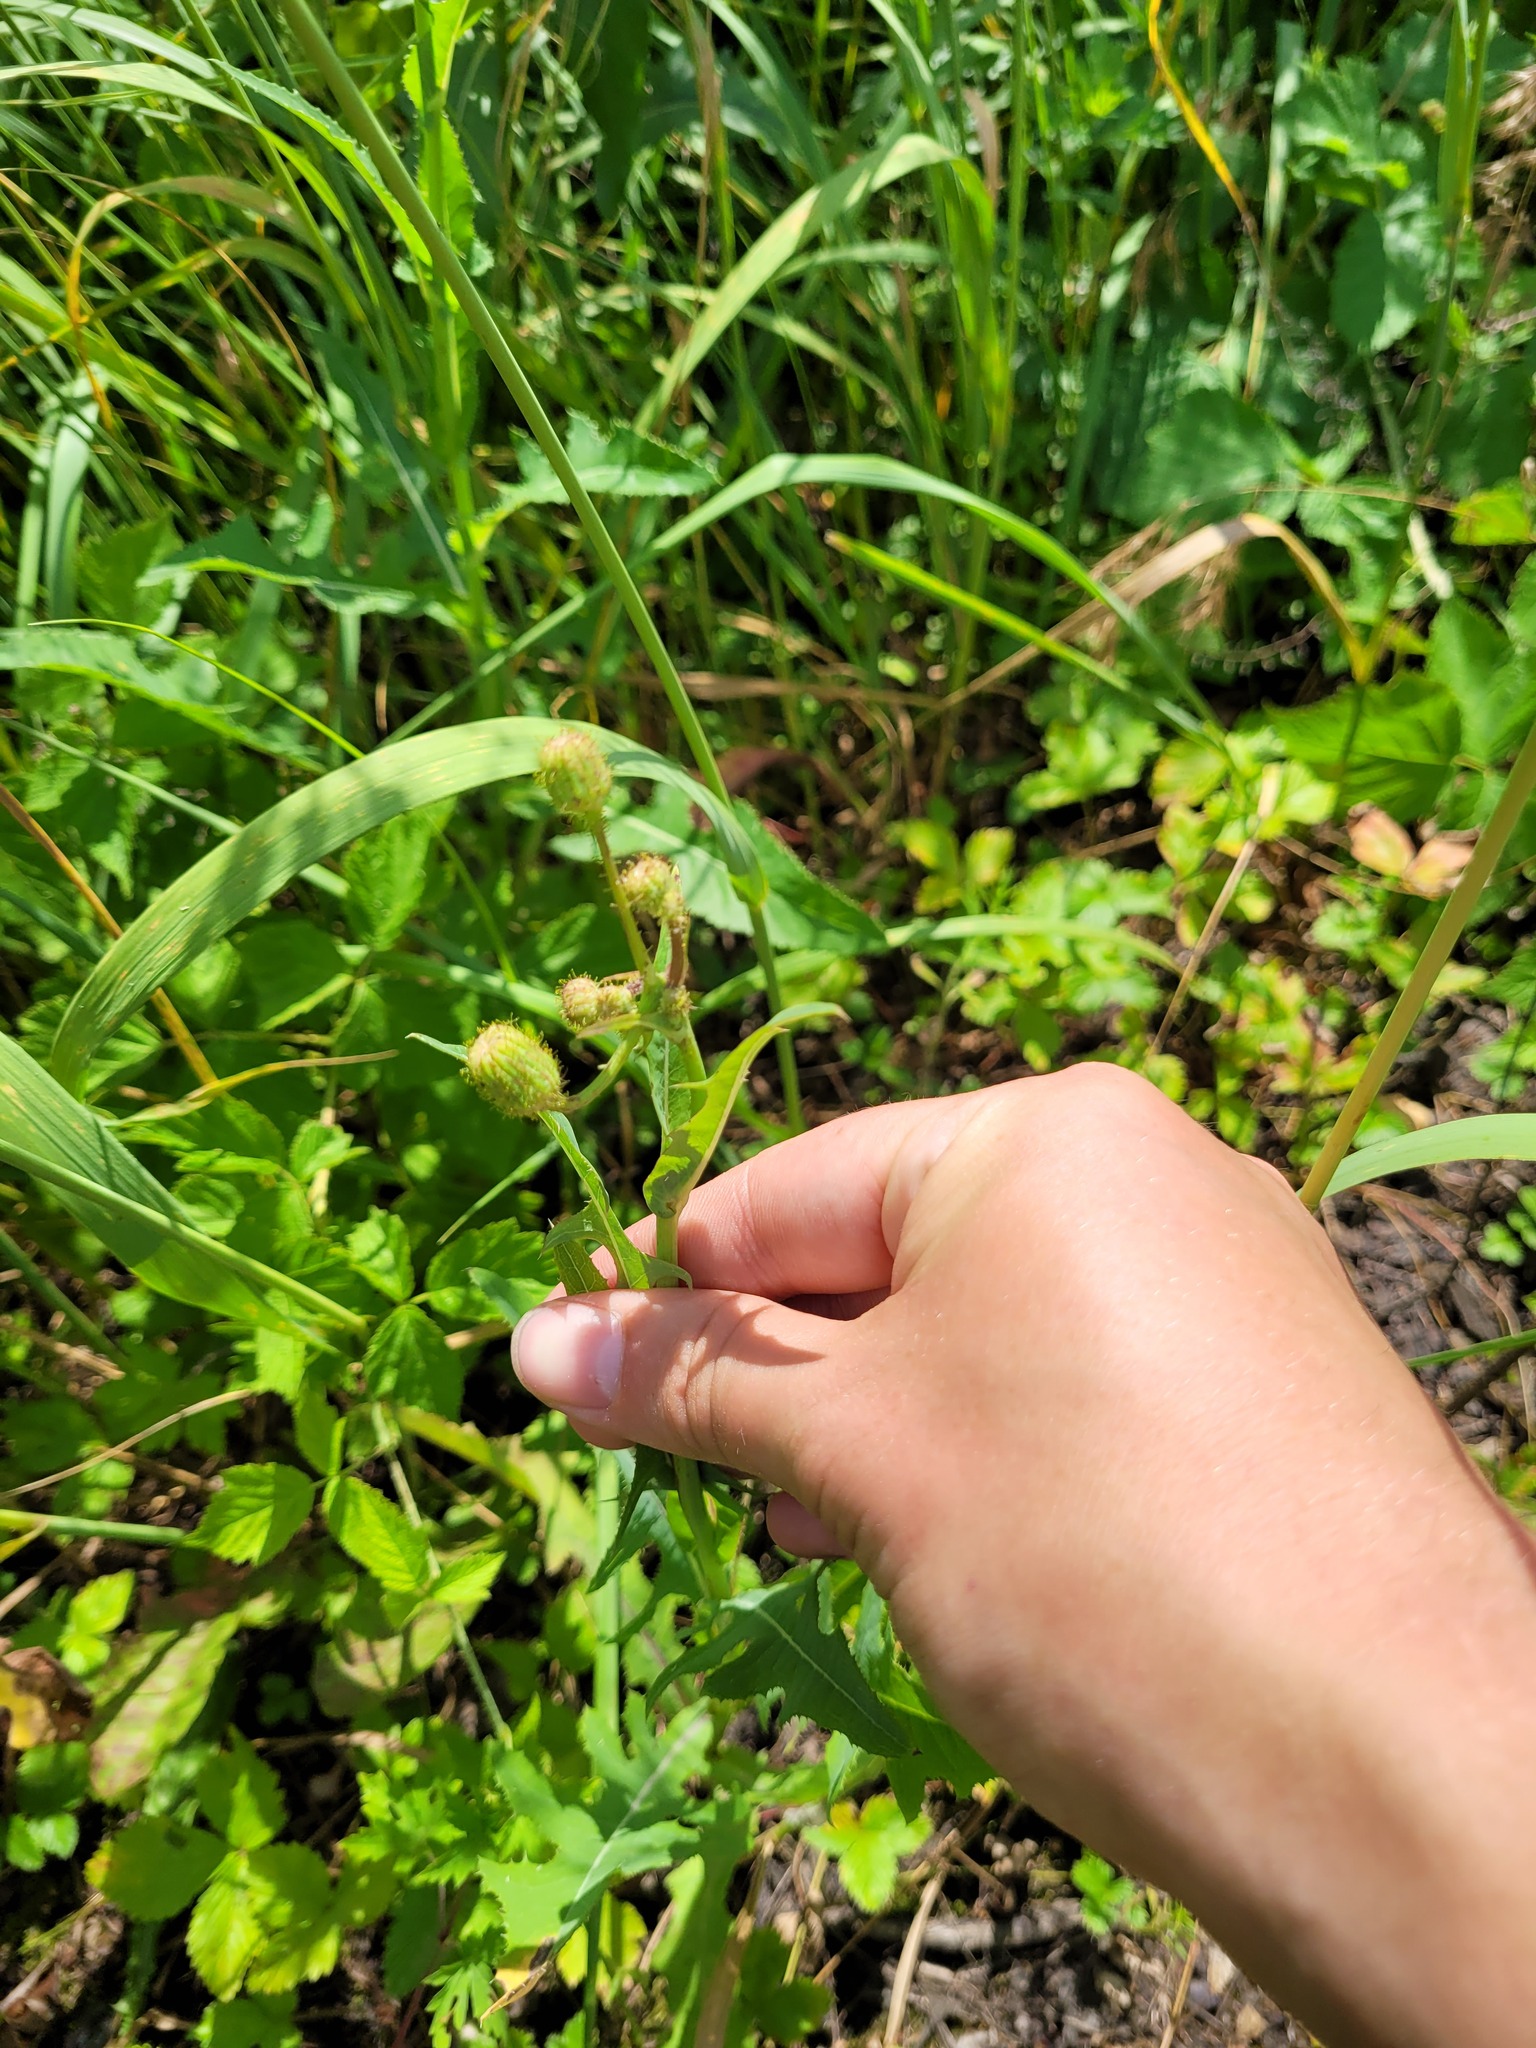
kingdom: Plantae
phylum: Tracheophyta
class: Magnoliopsida
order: Asterales
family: Asteraceae
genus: Sonchus
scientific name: Sonchus arvensis
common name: Perennial sow-thistle
